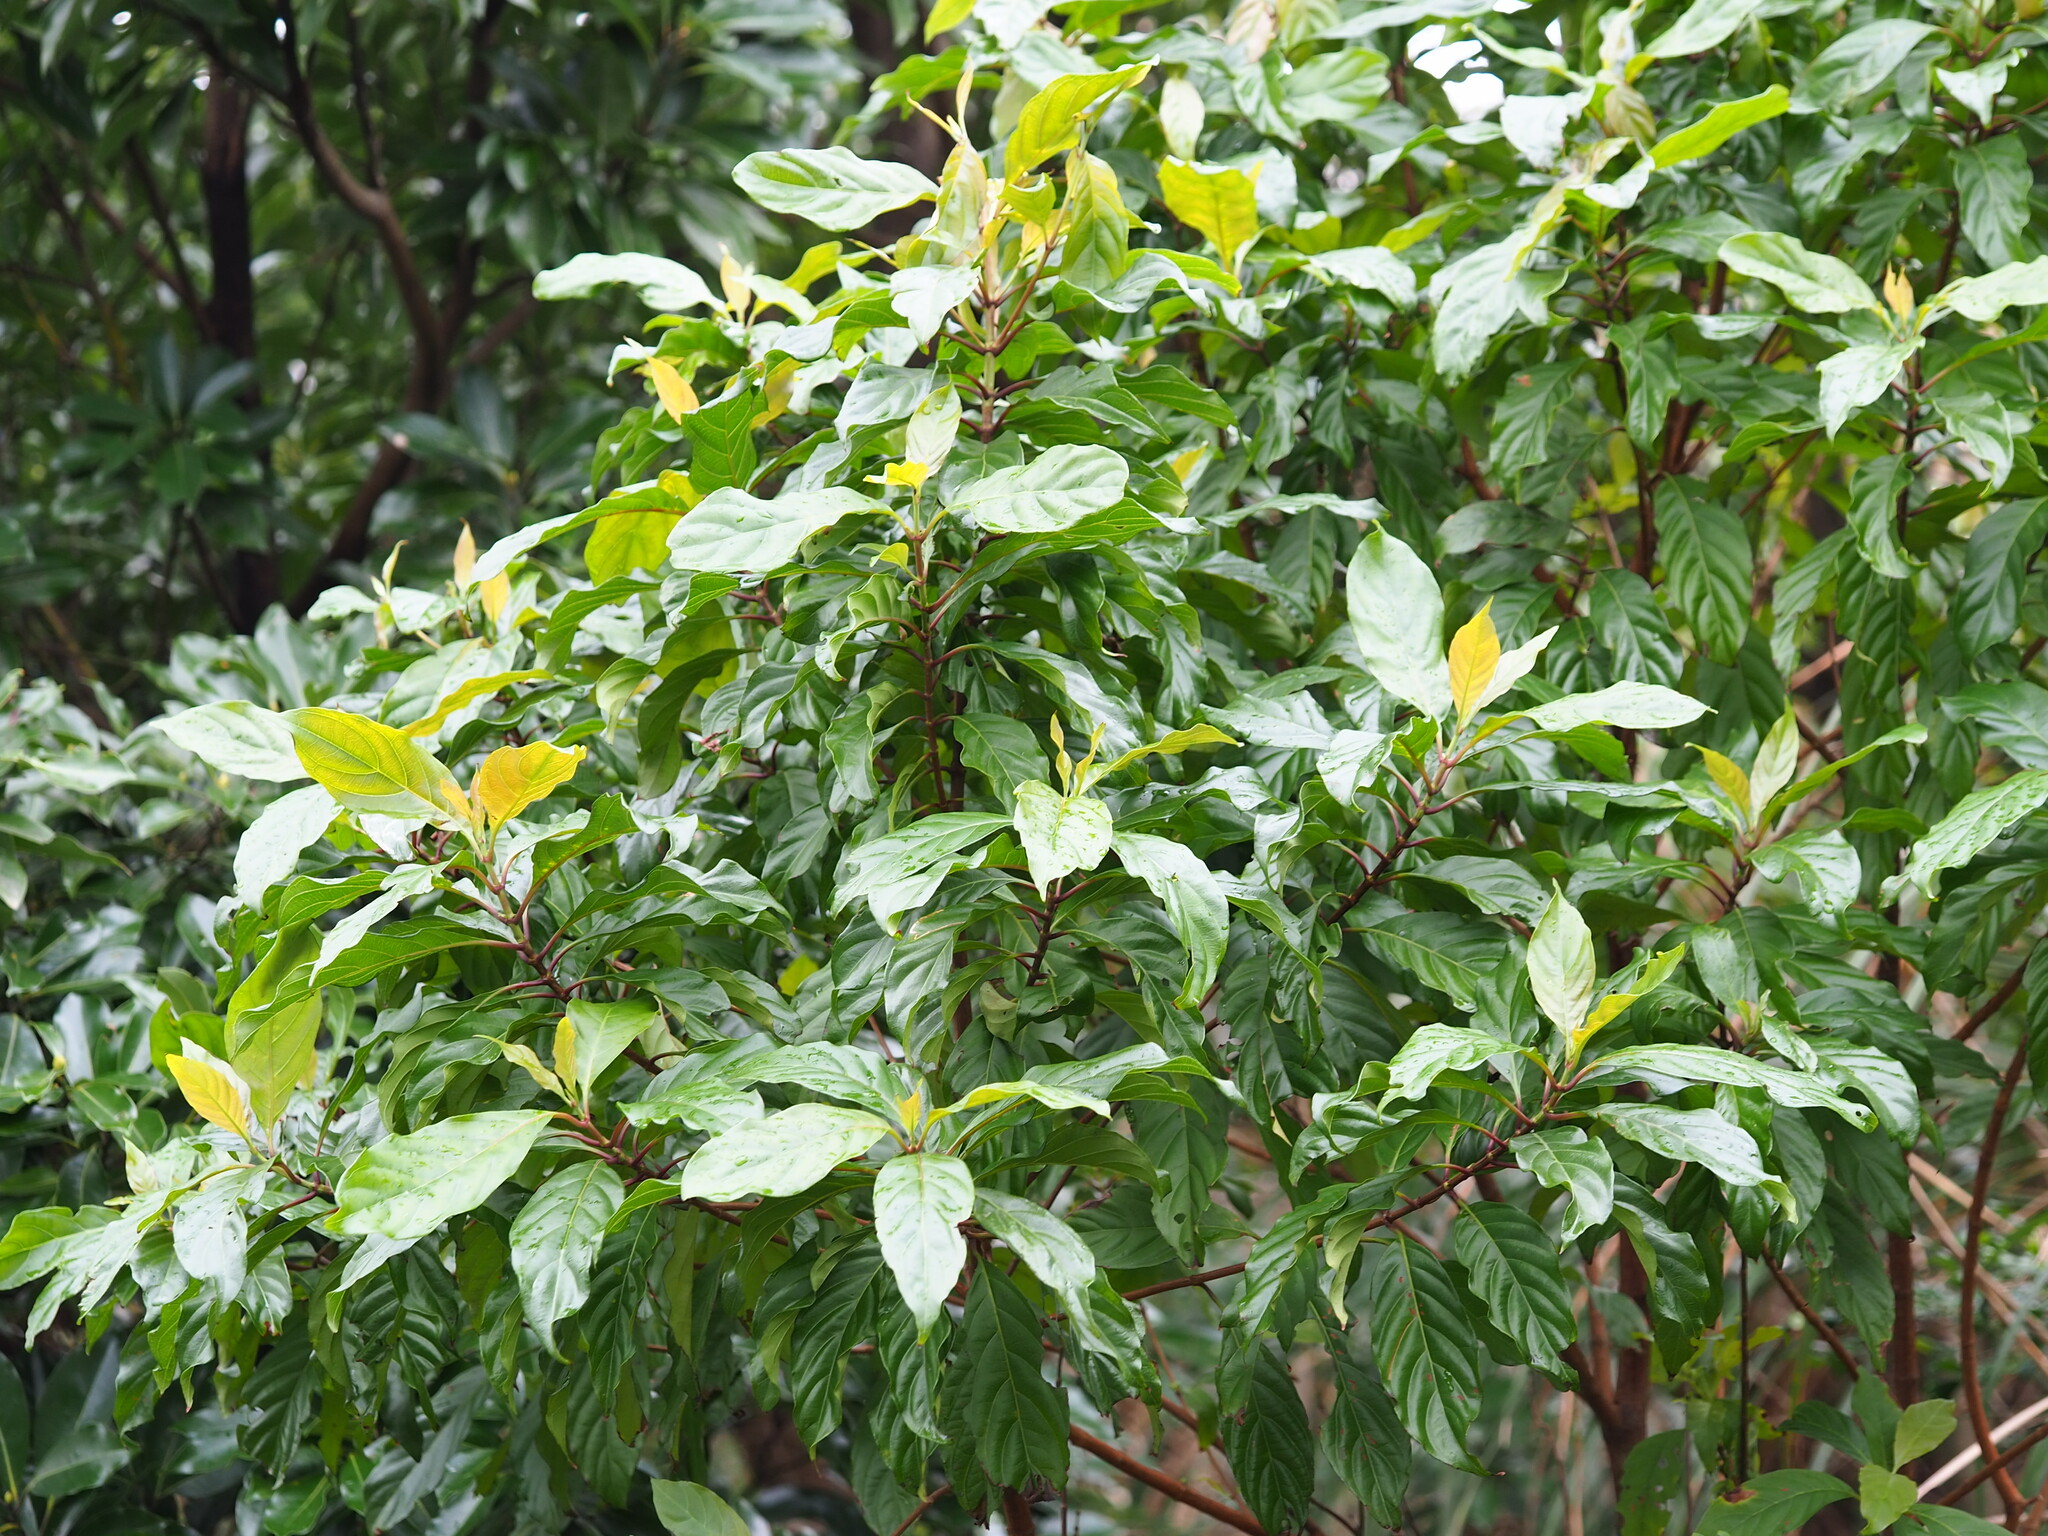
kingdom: Plantae
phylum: Tracheophyta
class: Magnoliopsida
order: Gentianales
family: Rubiaceae
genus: Wendlandia
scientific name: Wendlandia formosana
